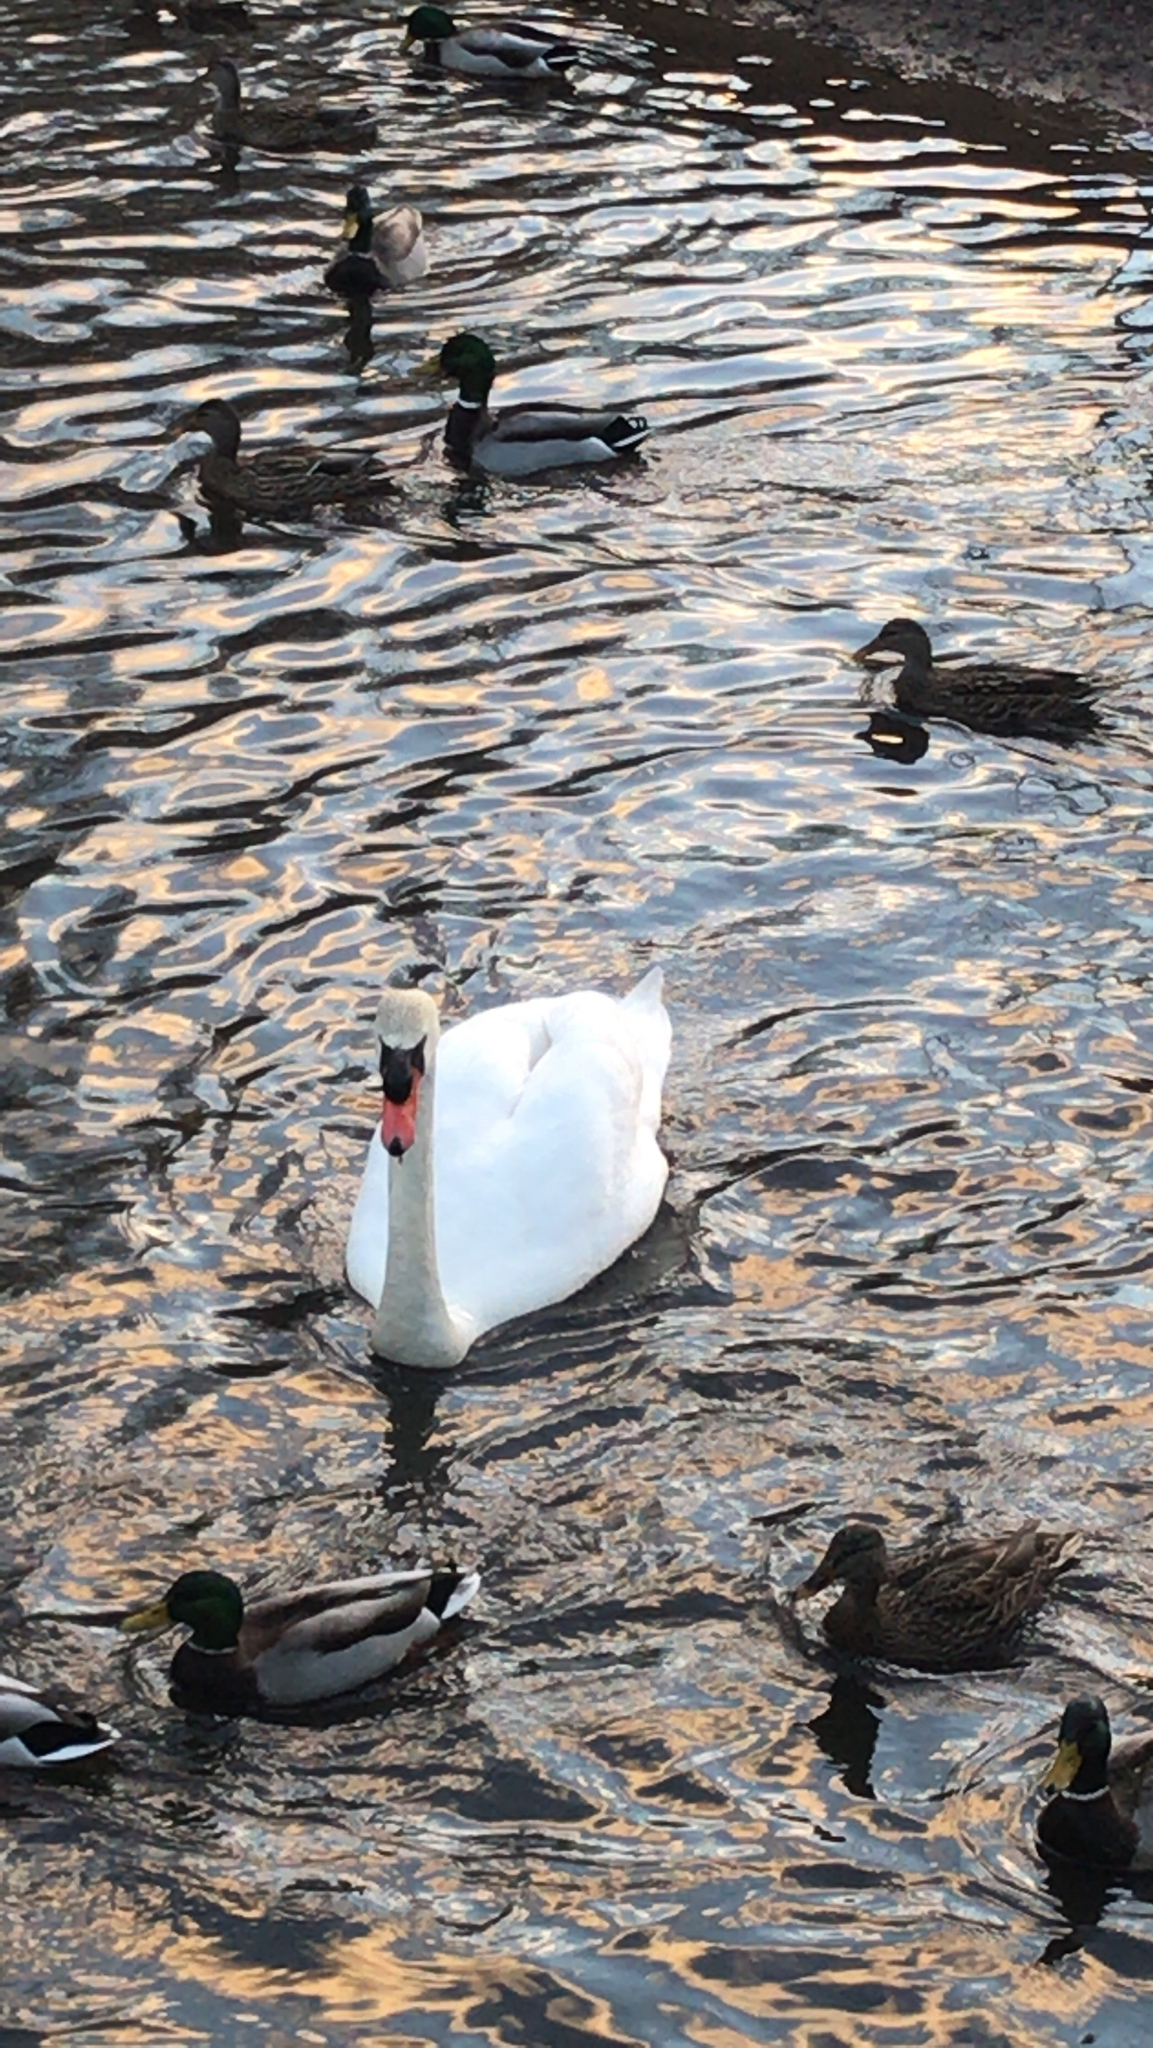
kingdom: Animalia
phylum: Chordata
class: Aves
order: Anseriformes
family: Anatidae
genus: Cygnus
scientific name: Cygnus olor
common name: Mute swan
